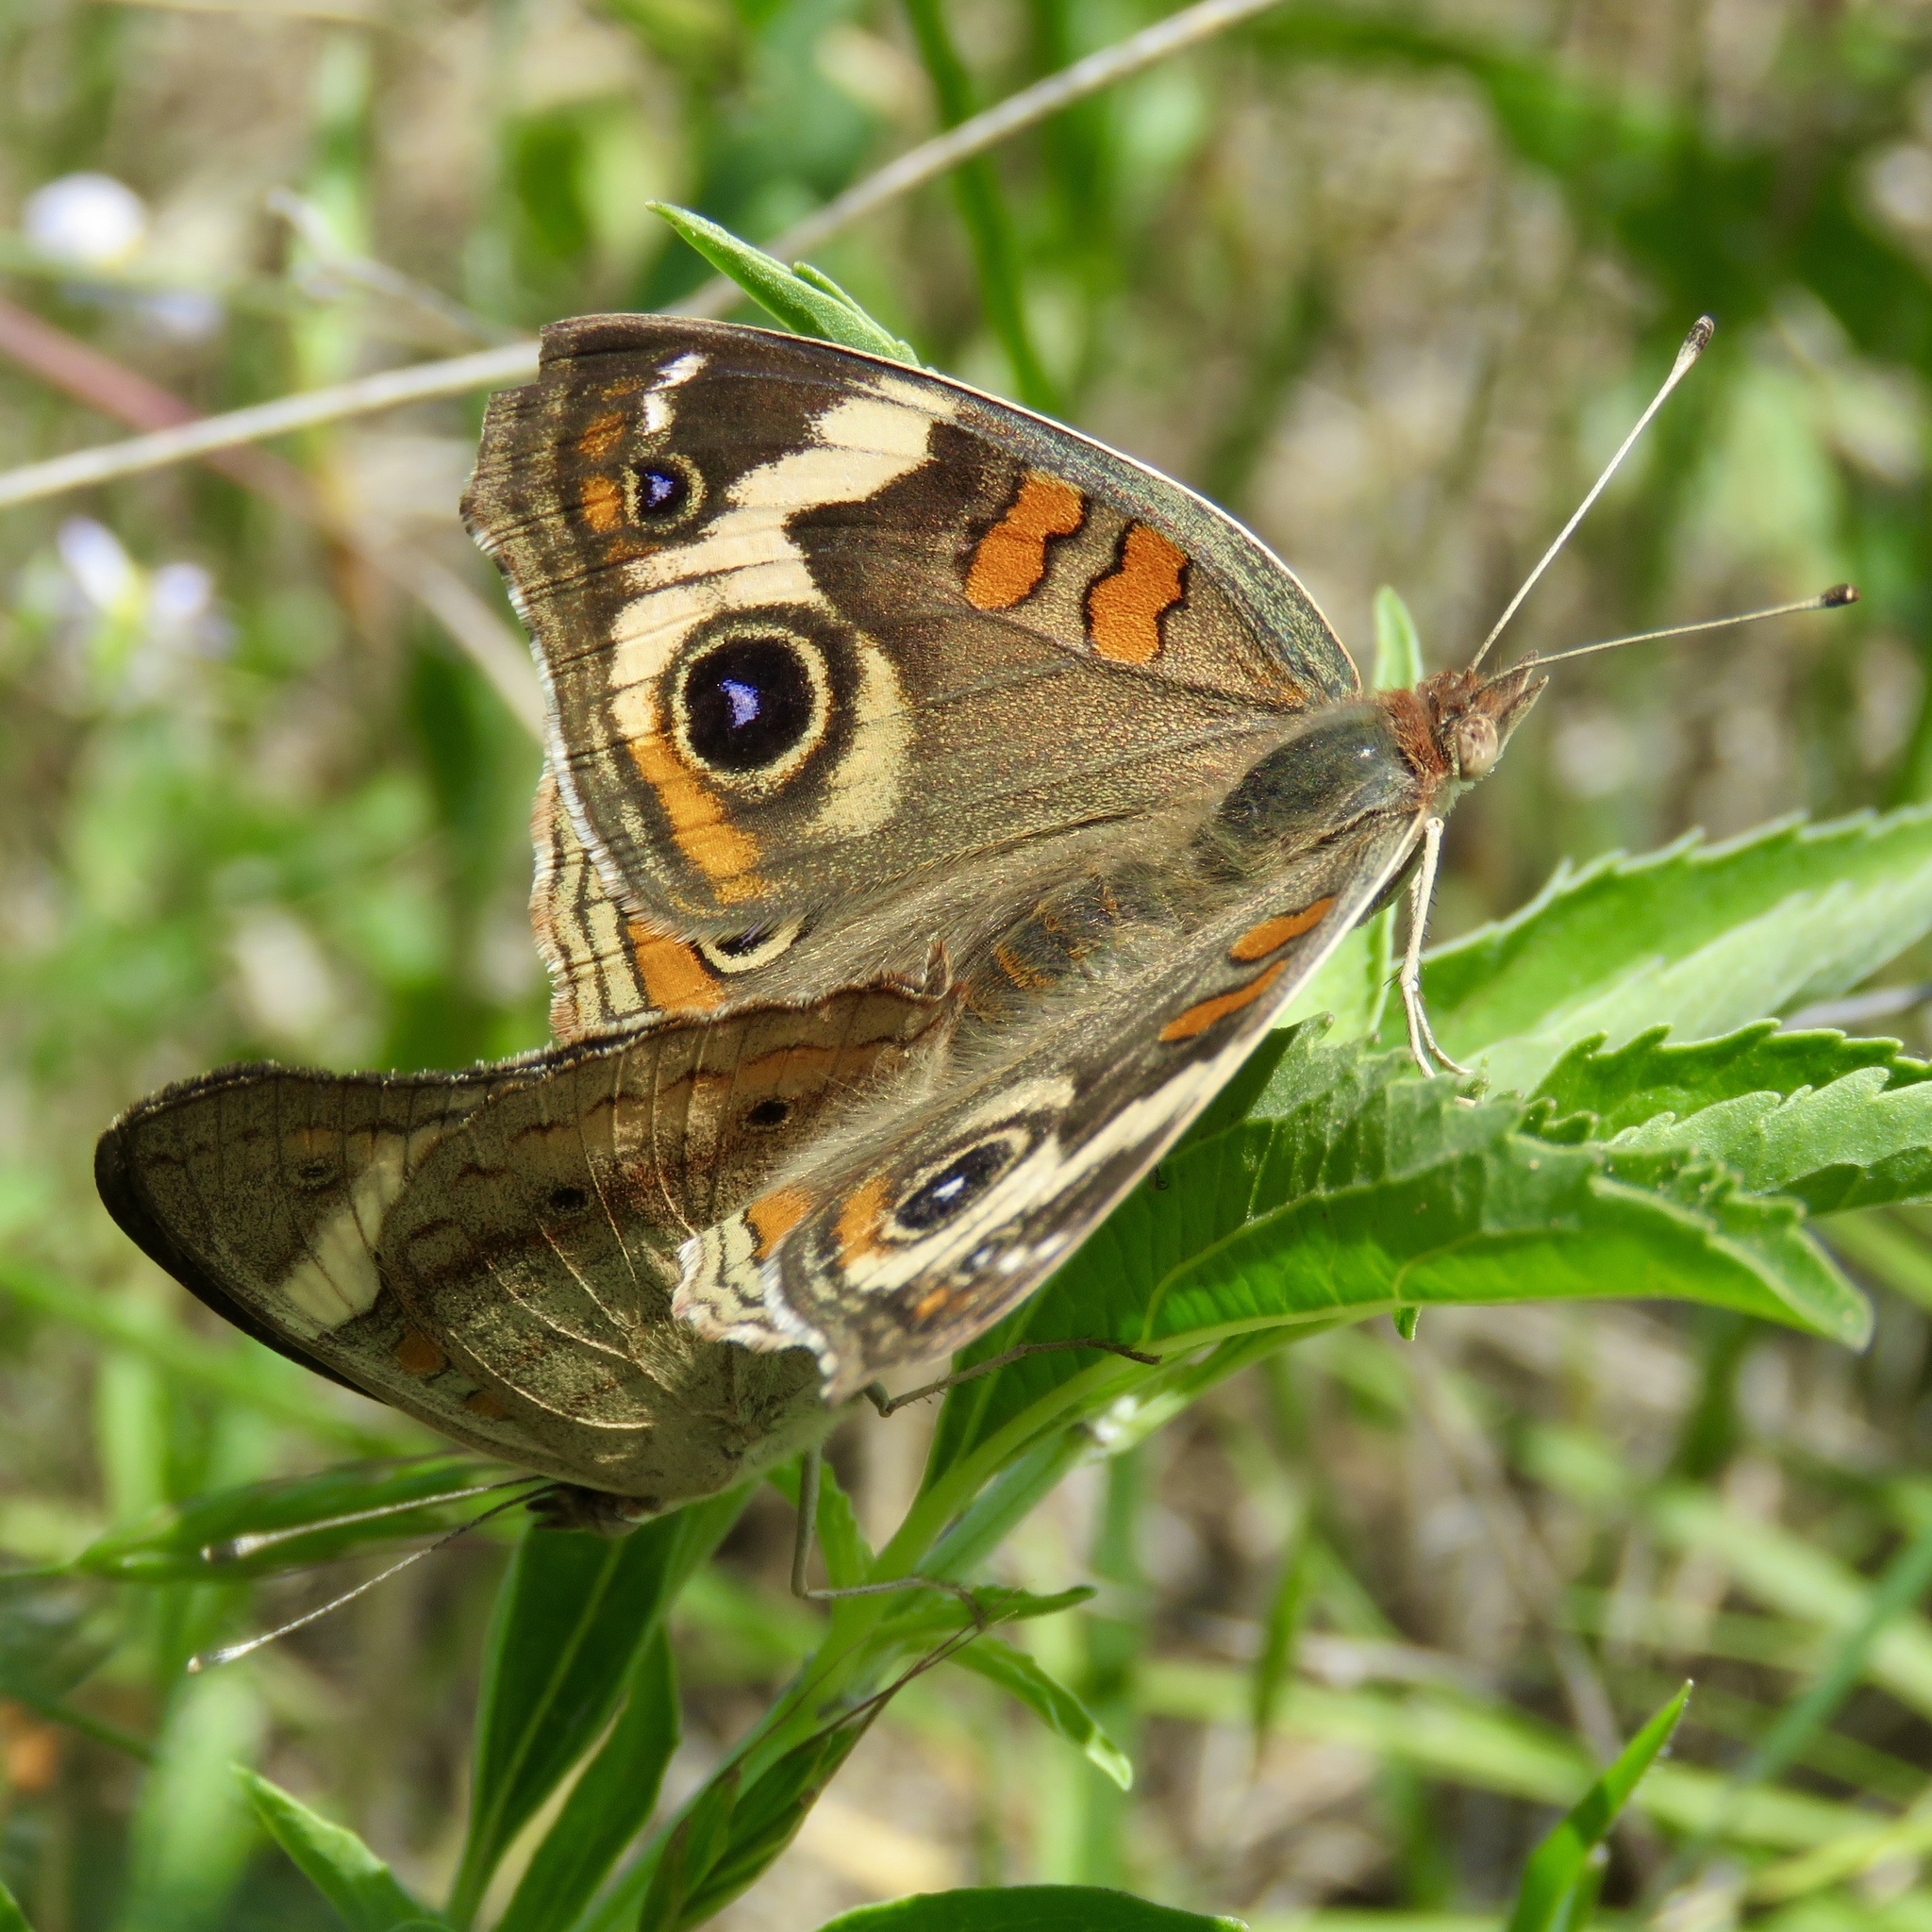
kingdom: Animalia
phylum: Arthropoda
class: Insecta
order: Lepidoptera
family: Nymphalidae
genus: Junonia
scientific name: Junonia coenia
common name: Common buckeye
